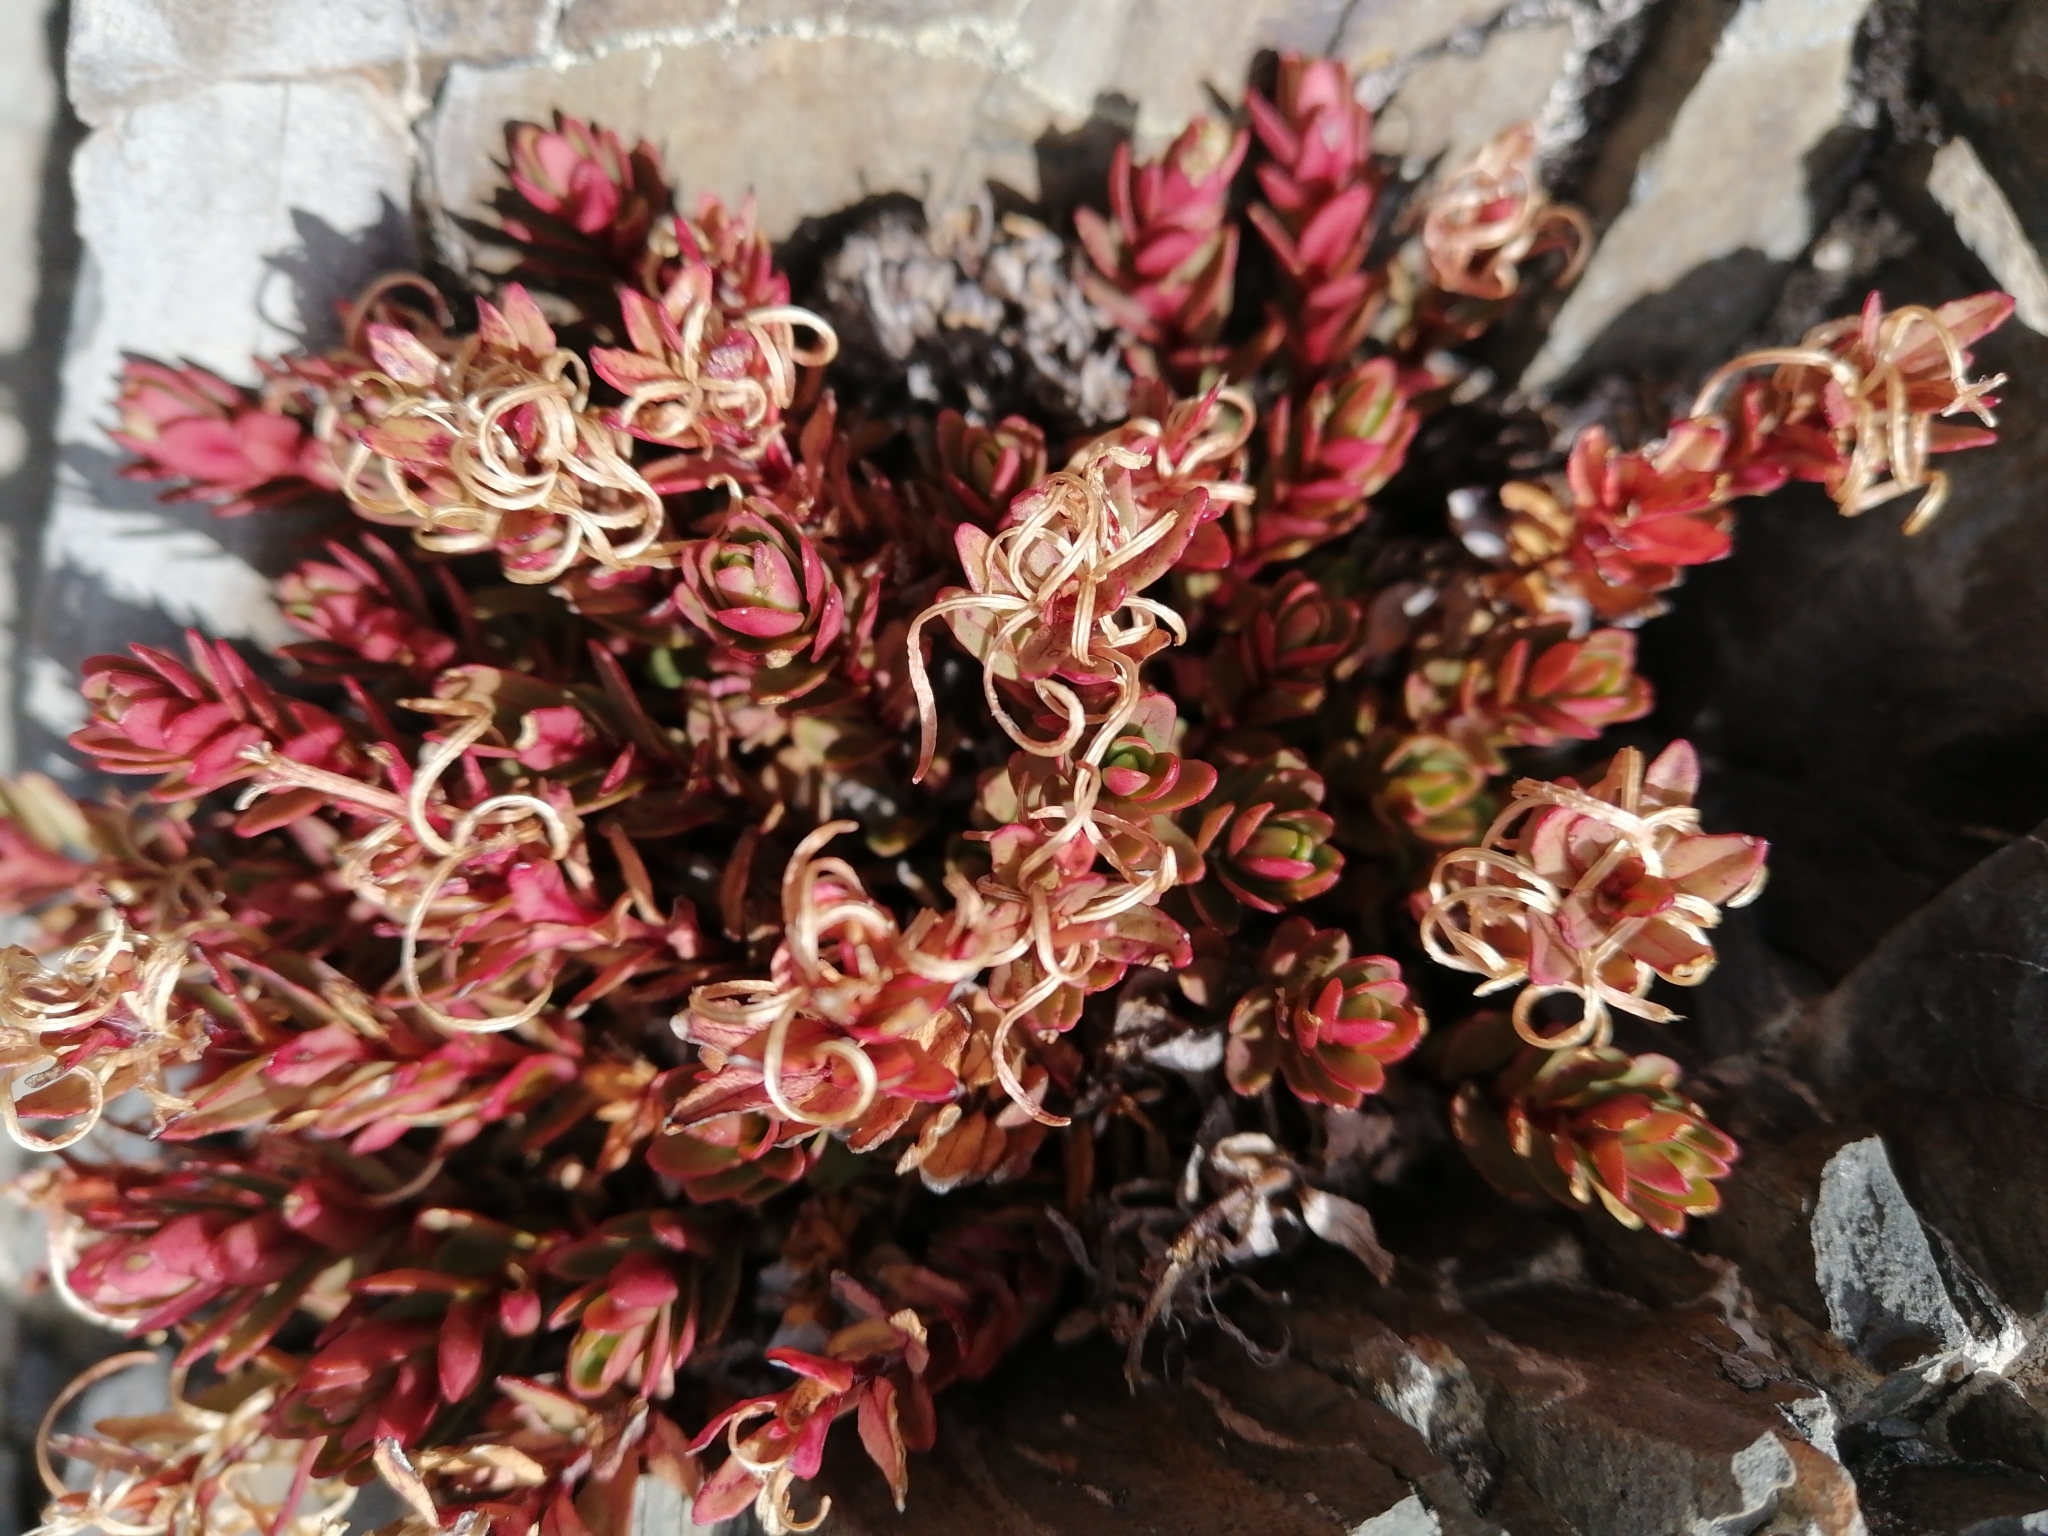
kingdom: Plantae
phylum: Tracheophyta
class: Magnoliopsida
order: Myrtales
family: Onagraceae
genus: Epilobium
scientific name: Epilobium porphyrium
